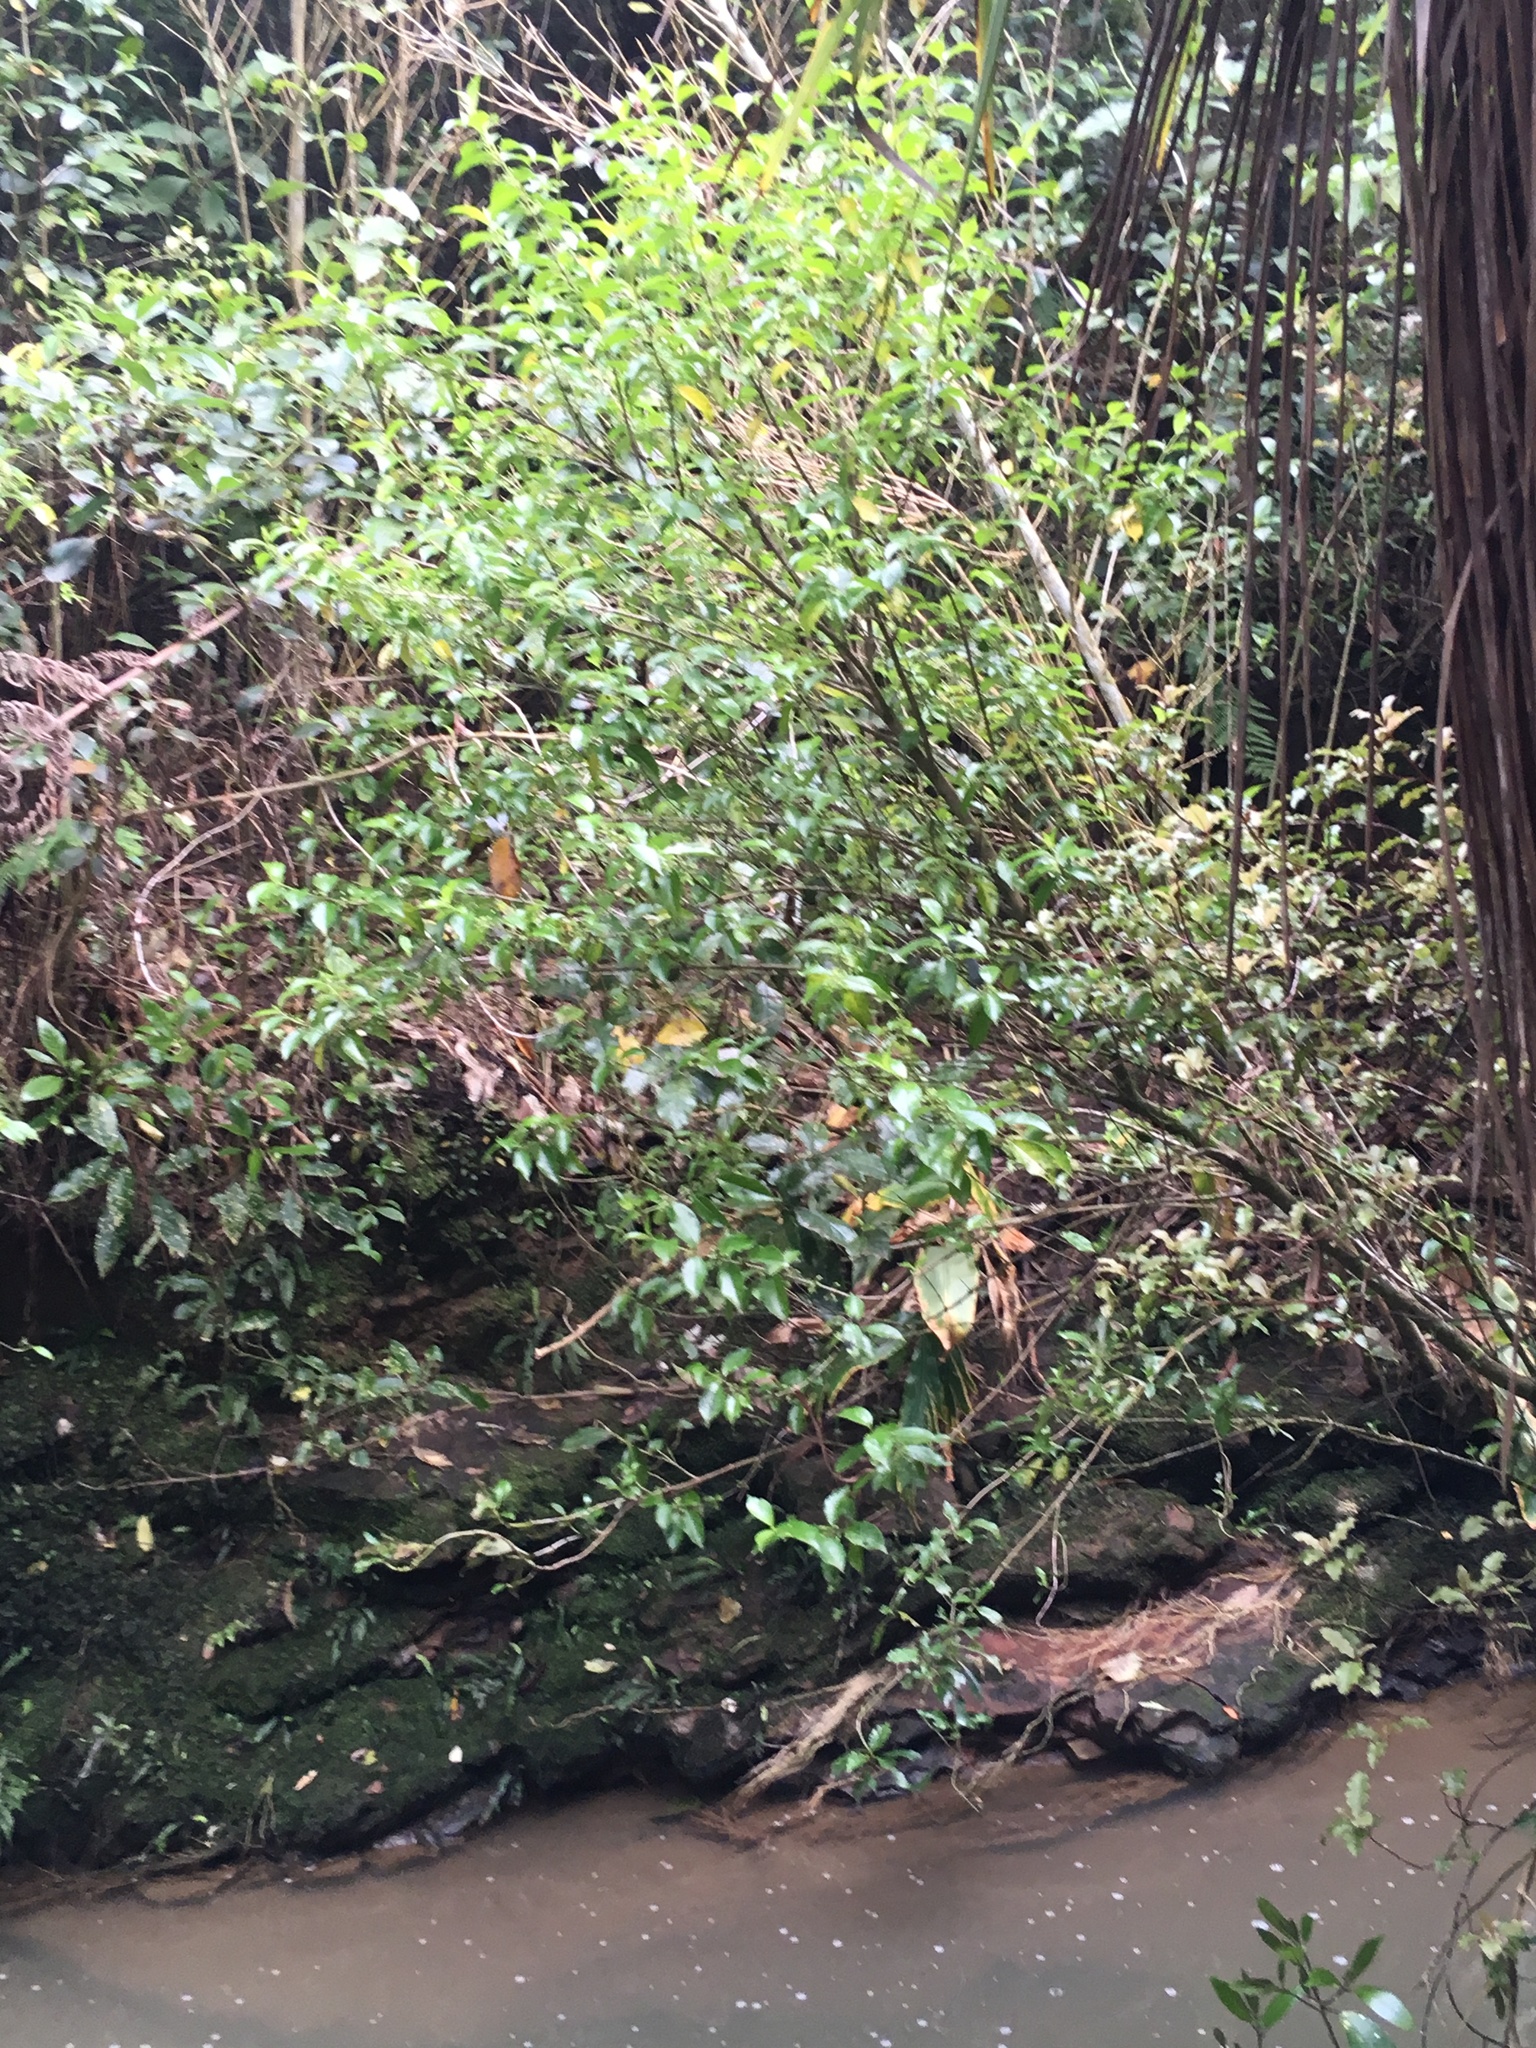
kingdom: Plantae
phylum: Tracheophyta
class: Magnoliopsida
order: Gentianales
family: Loganiaceae
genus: Geniostoma
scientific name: Geniostoma ligustrifolium
